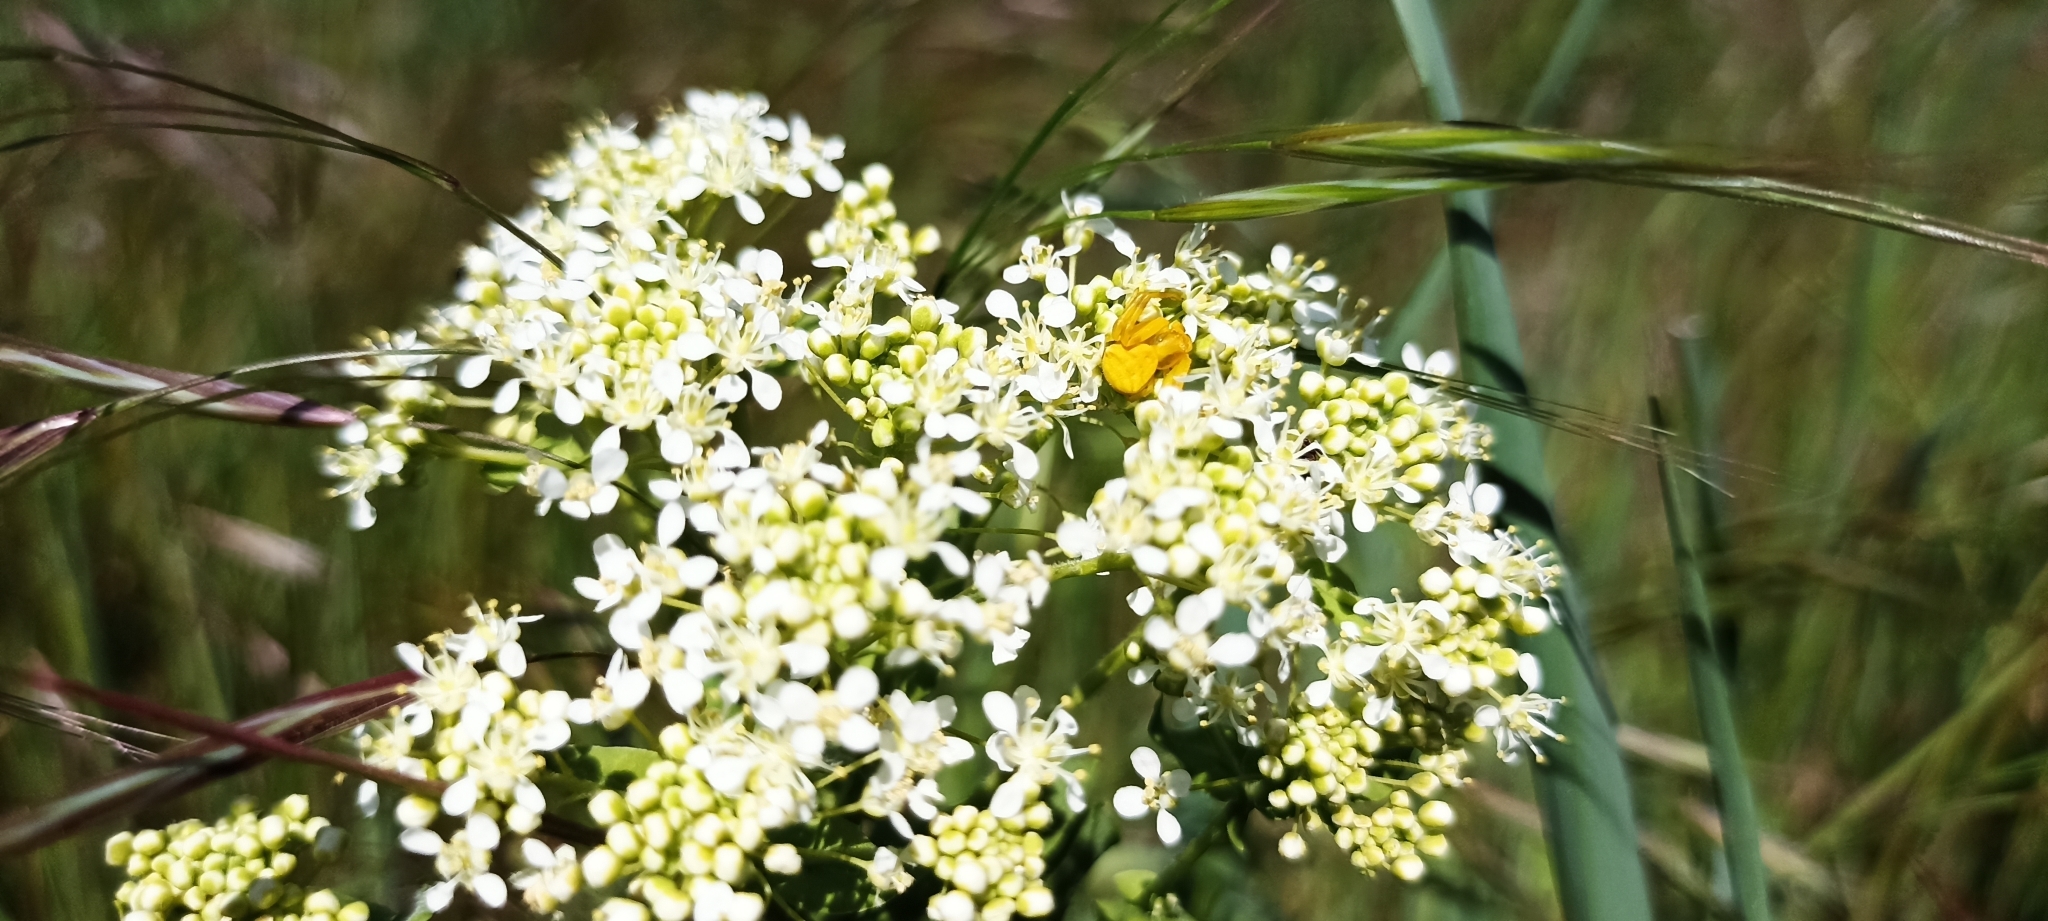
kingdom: Animalia
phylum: Arthropoda
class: Arachnida
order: Araneae
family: Thomisidae
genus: Thomisus
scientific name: Thomisus onustus
